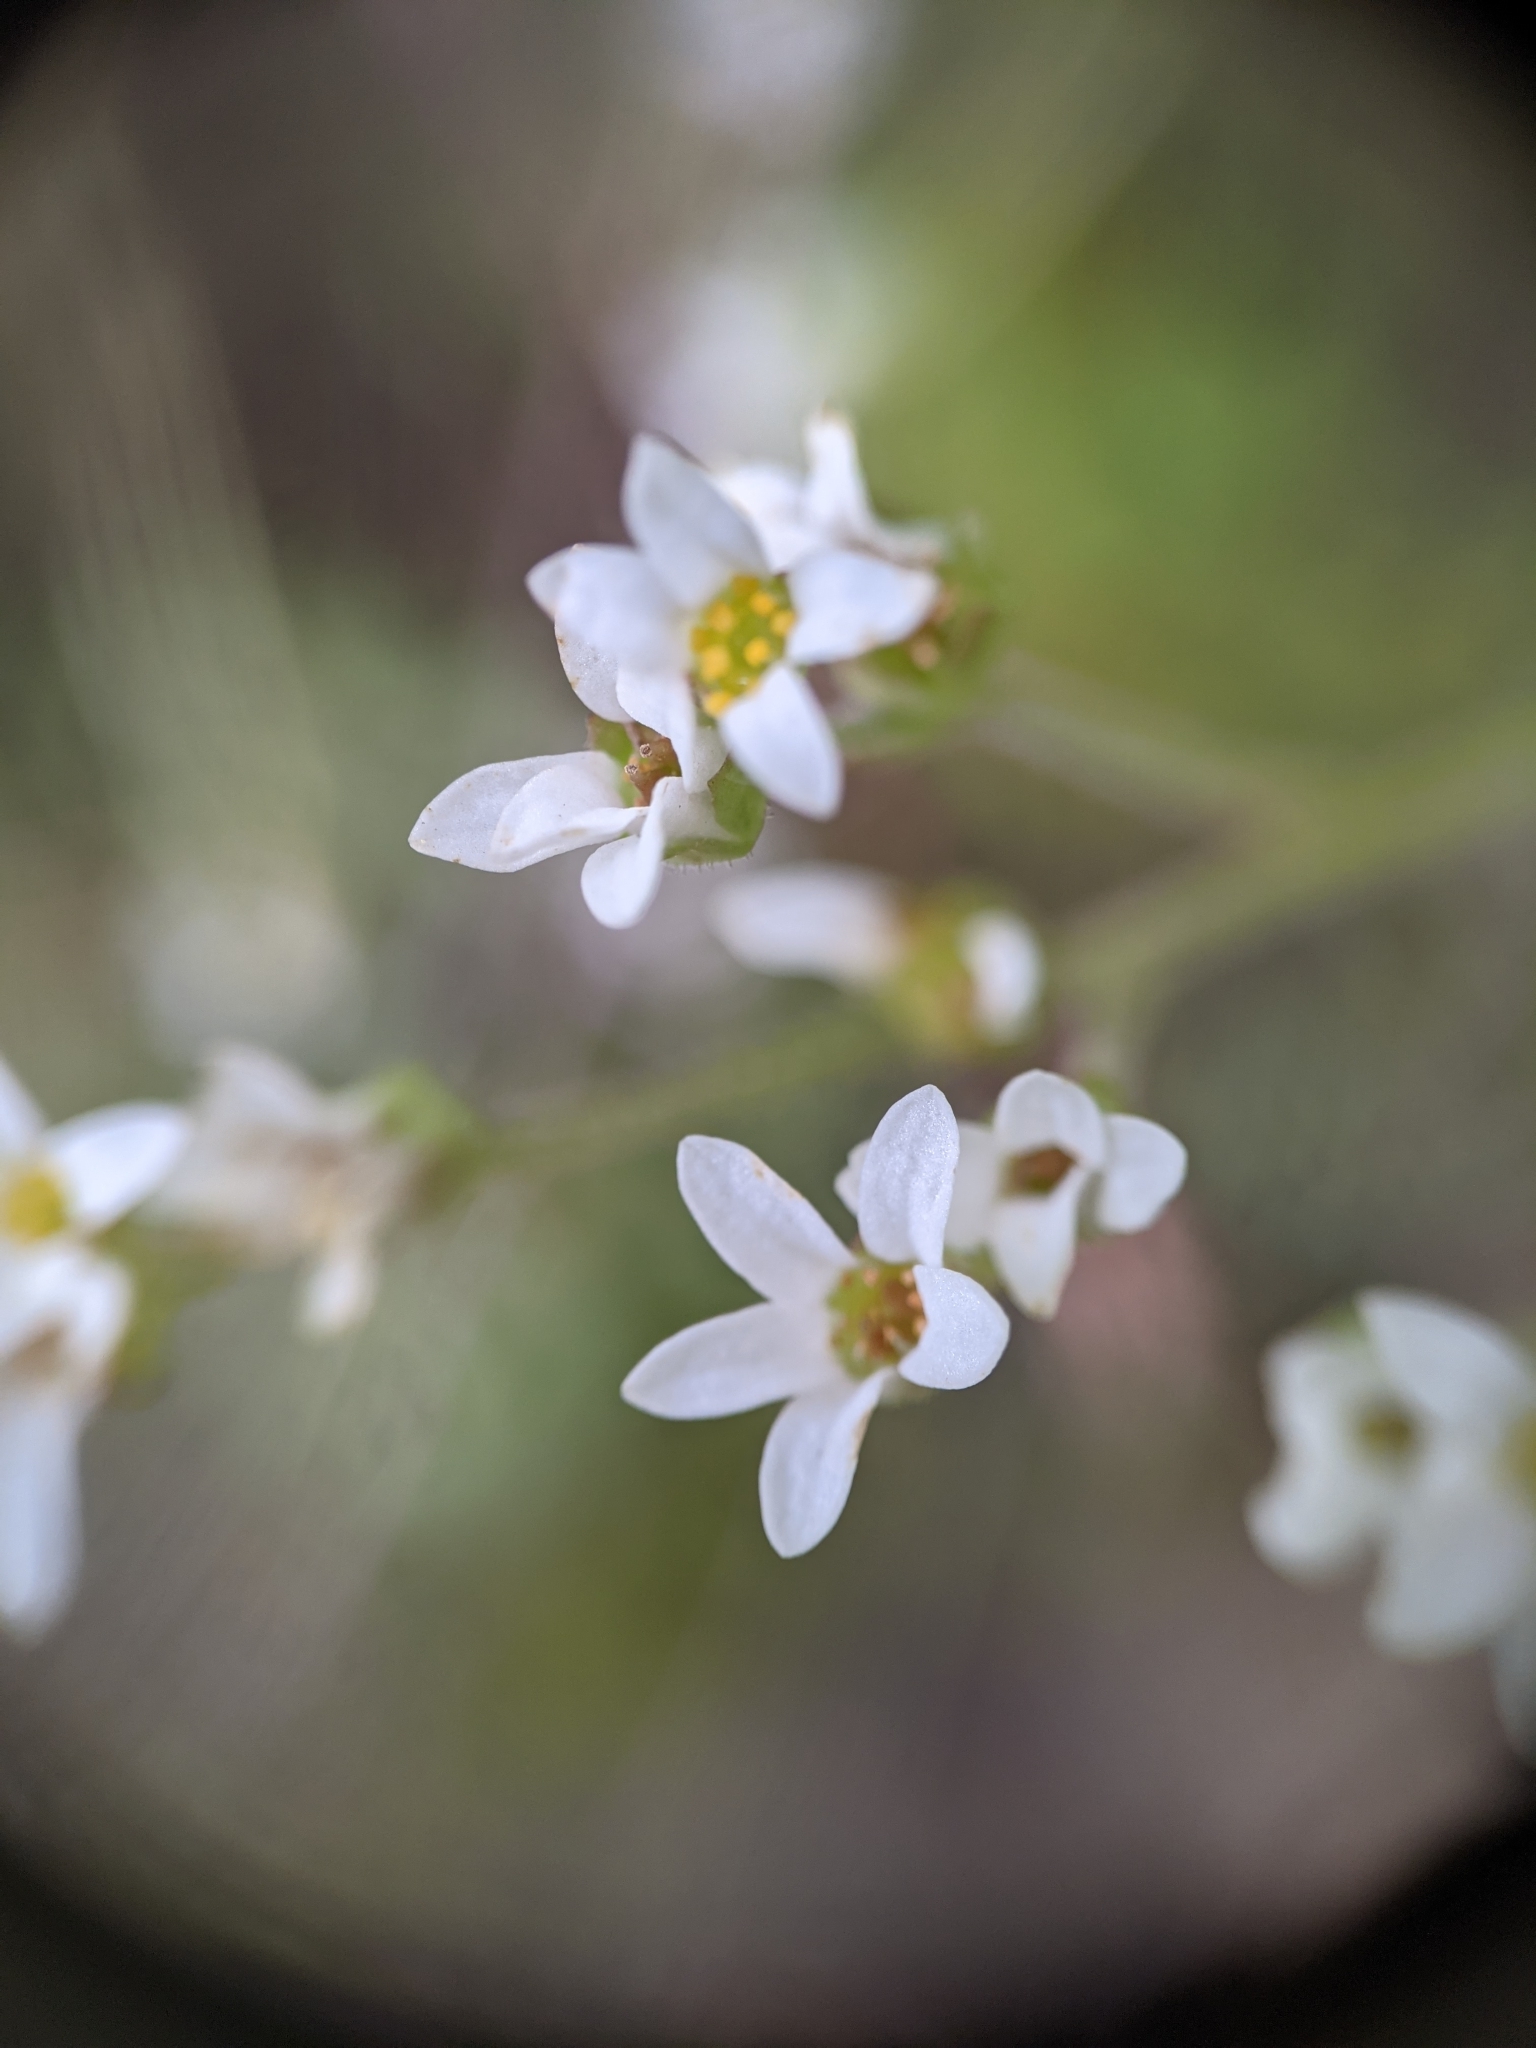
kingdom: Plantae
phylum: Tracheophyta
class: Magnoliopsida
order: Saxifragales
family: Saxifragaceae
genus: Micranthes
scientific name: Micranthes virginiensis
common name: Early saxifrage
